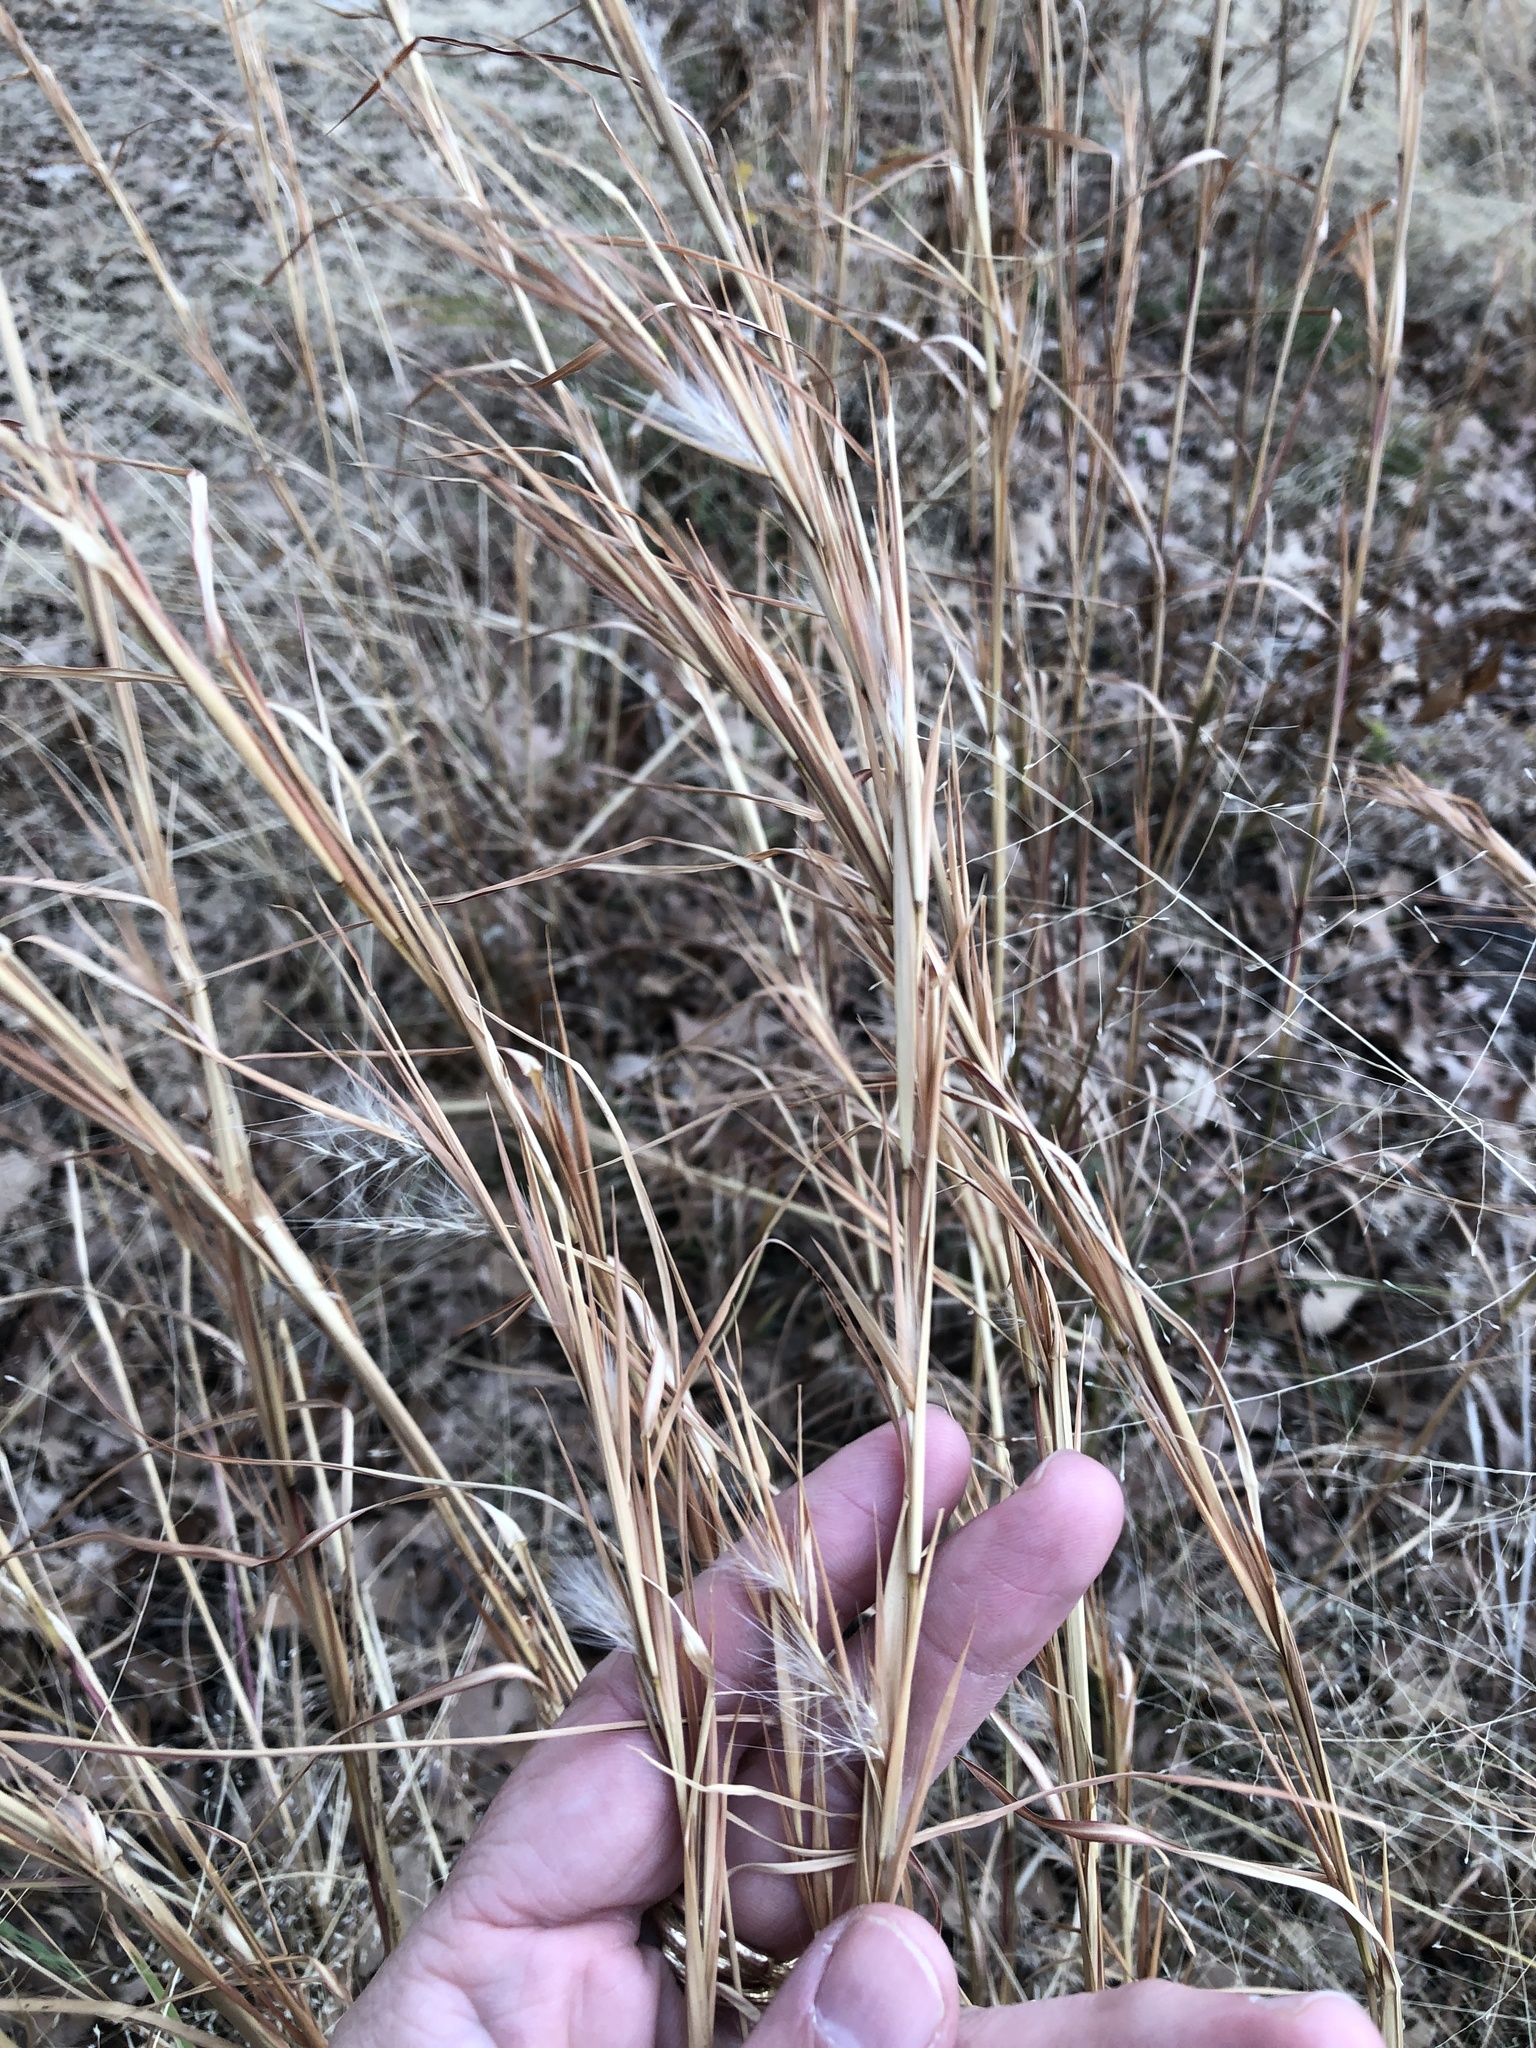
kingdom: Plantae
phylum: Tracheophyta
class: Liliopsida
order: Poales
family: Poaceae
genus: Andropogon
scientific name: Andropogon virginicus
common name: Broomsedge bluestem
